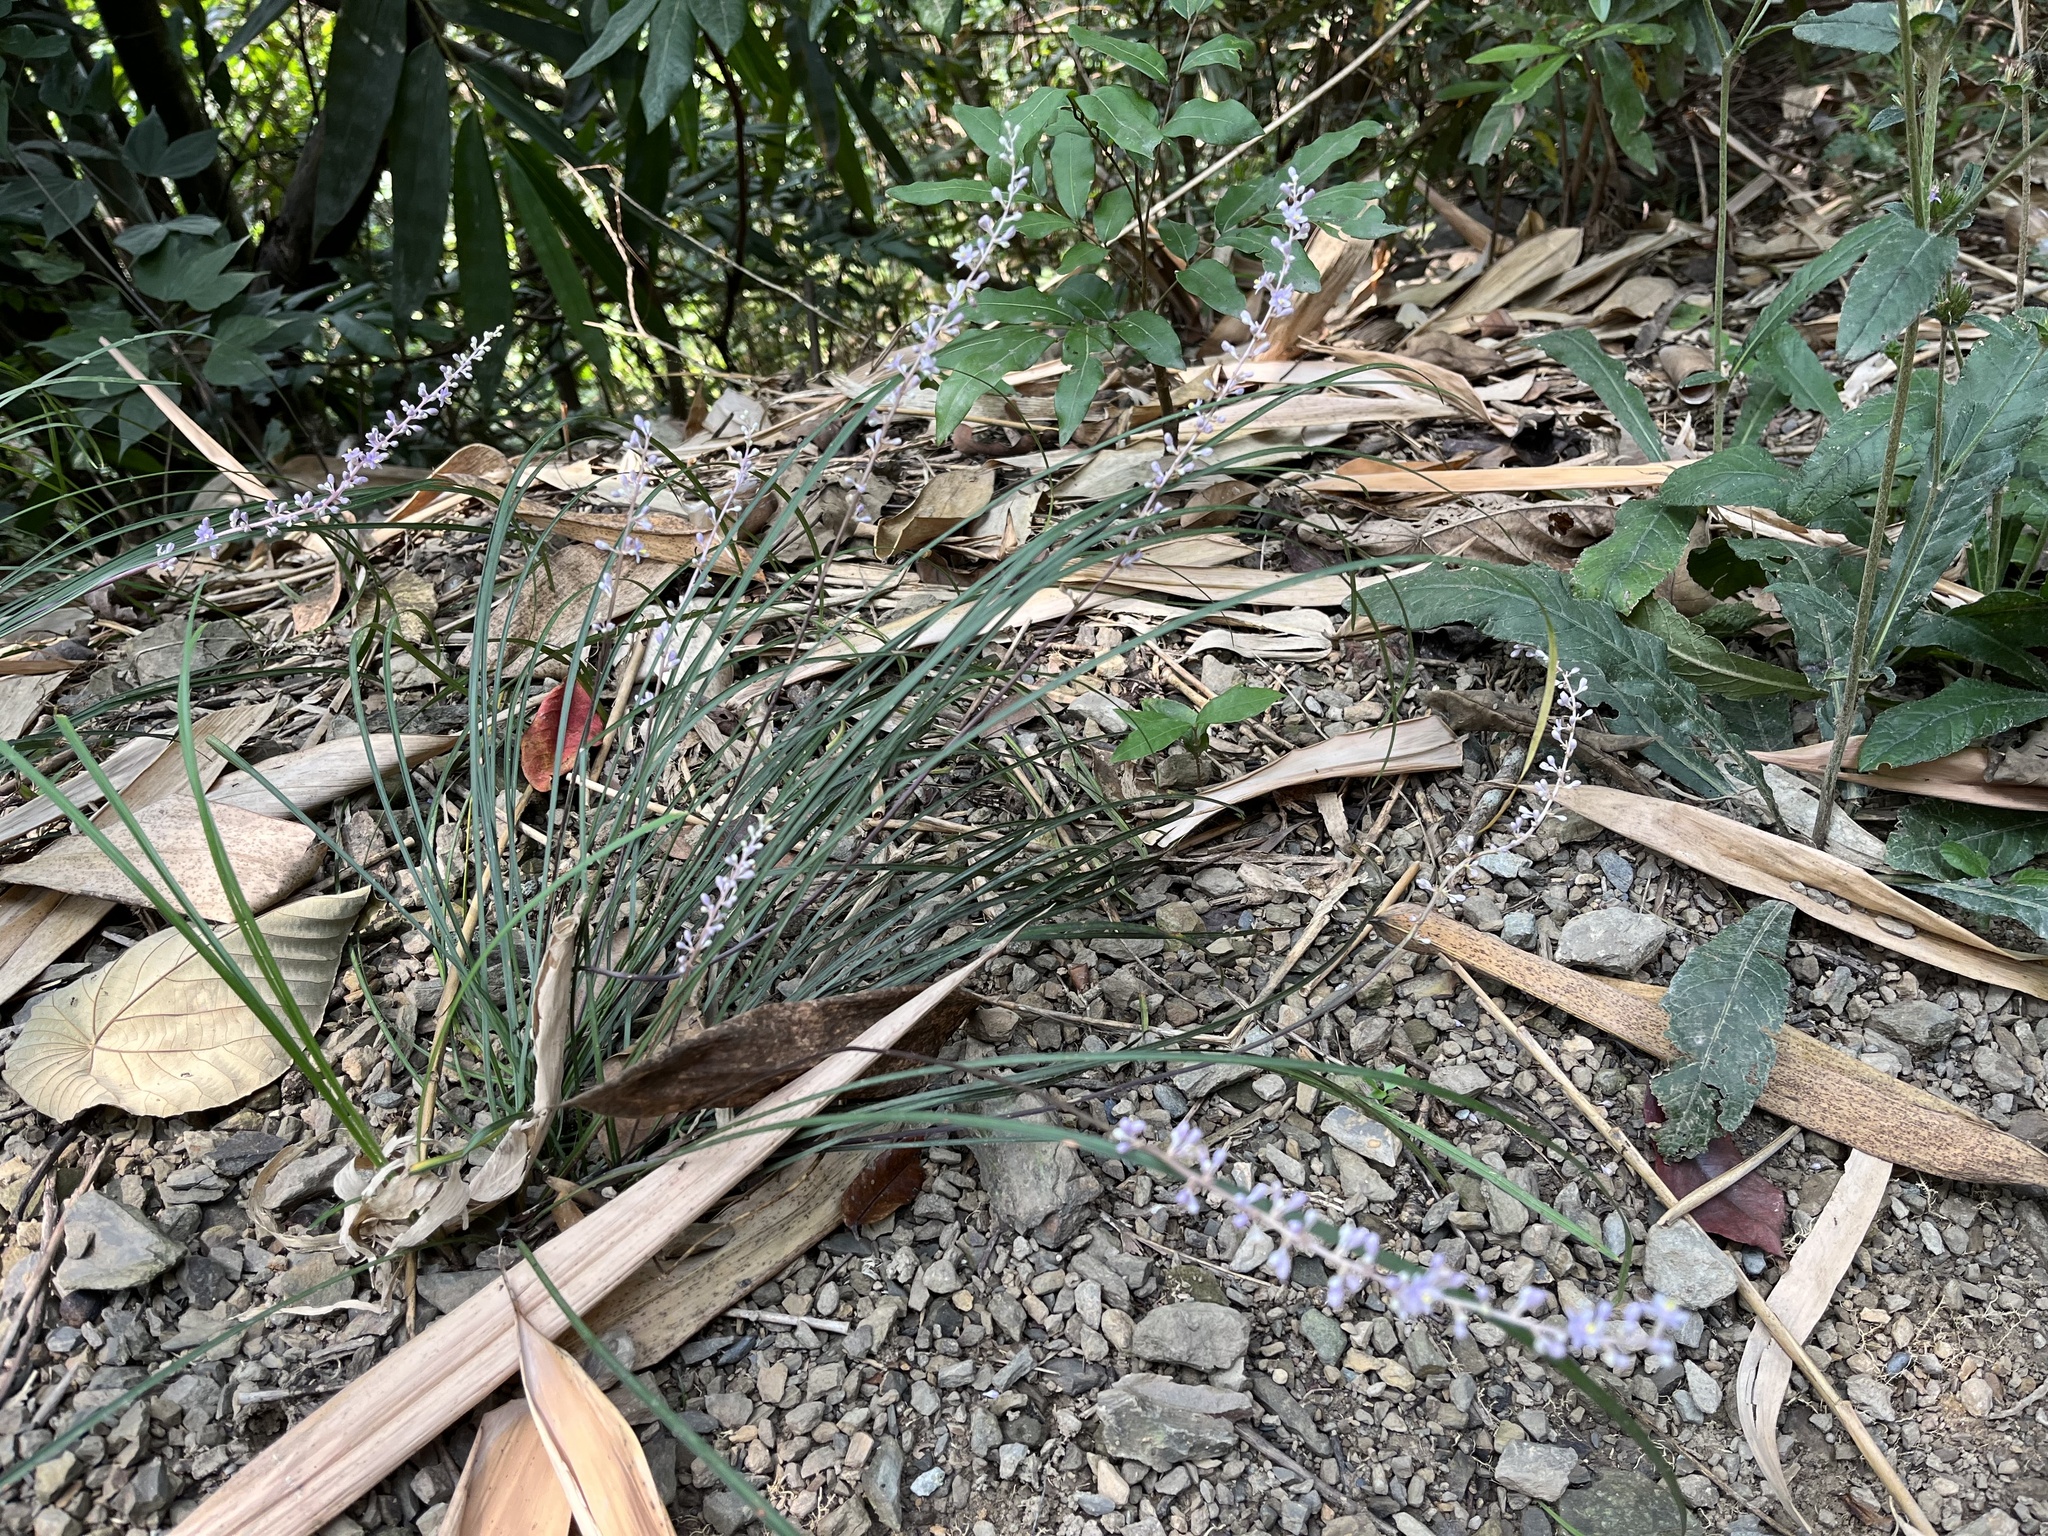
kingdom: Plantae
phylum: Tracheophyta
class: Liliopsida
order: Asparagales
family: Asparagaceae
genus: Liriope
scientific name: Liriope graminifolia
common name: Lilyturf
